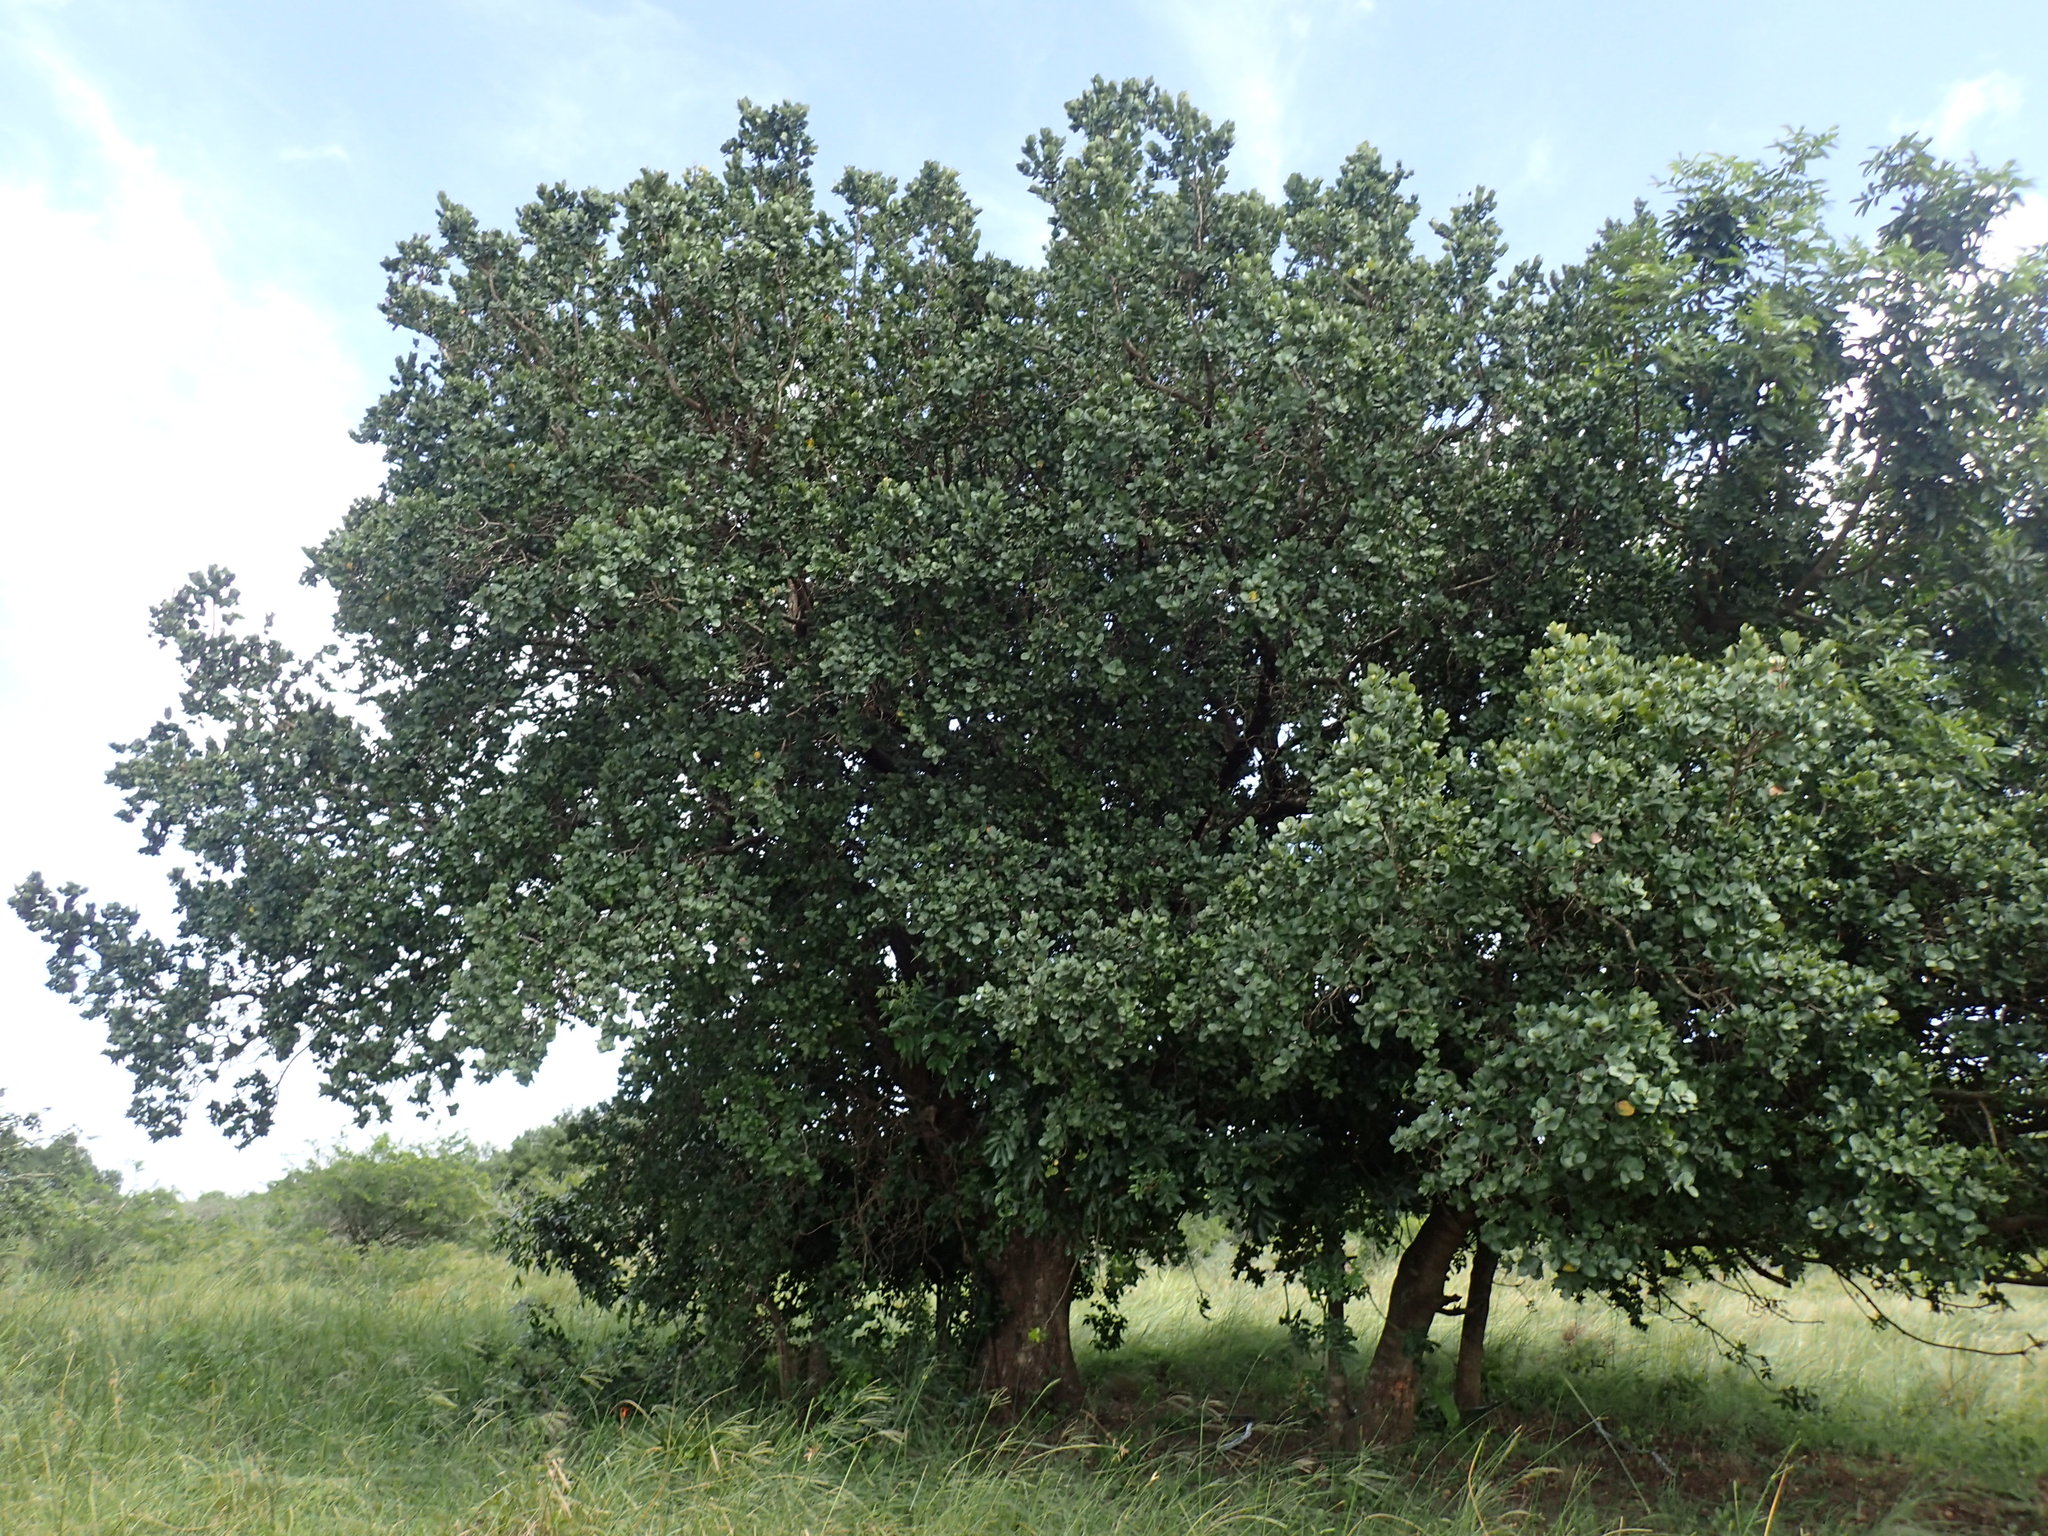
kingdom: Plantae
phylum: Tracheophyta
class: Magnoliopsida
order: Myrtales
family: Myrtaceae
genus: Syzygium
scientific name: Syzygium cordatum
